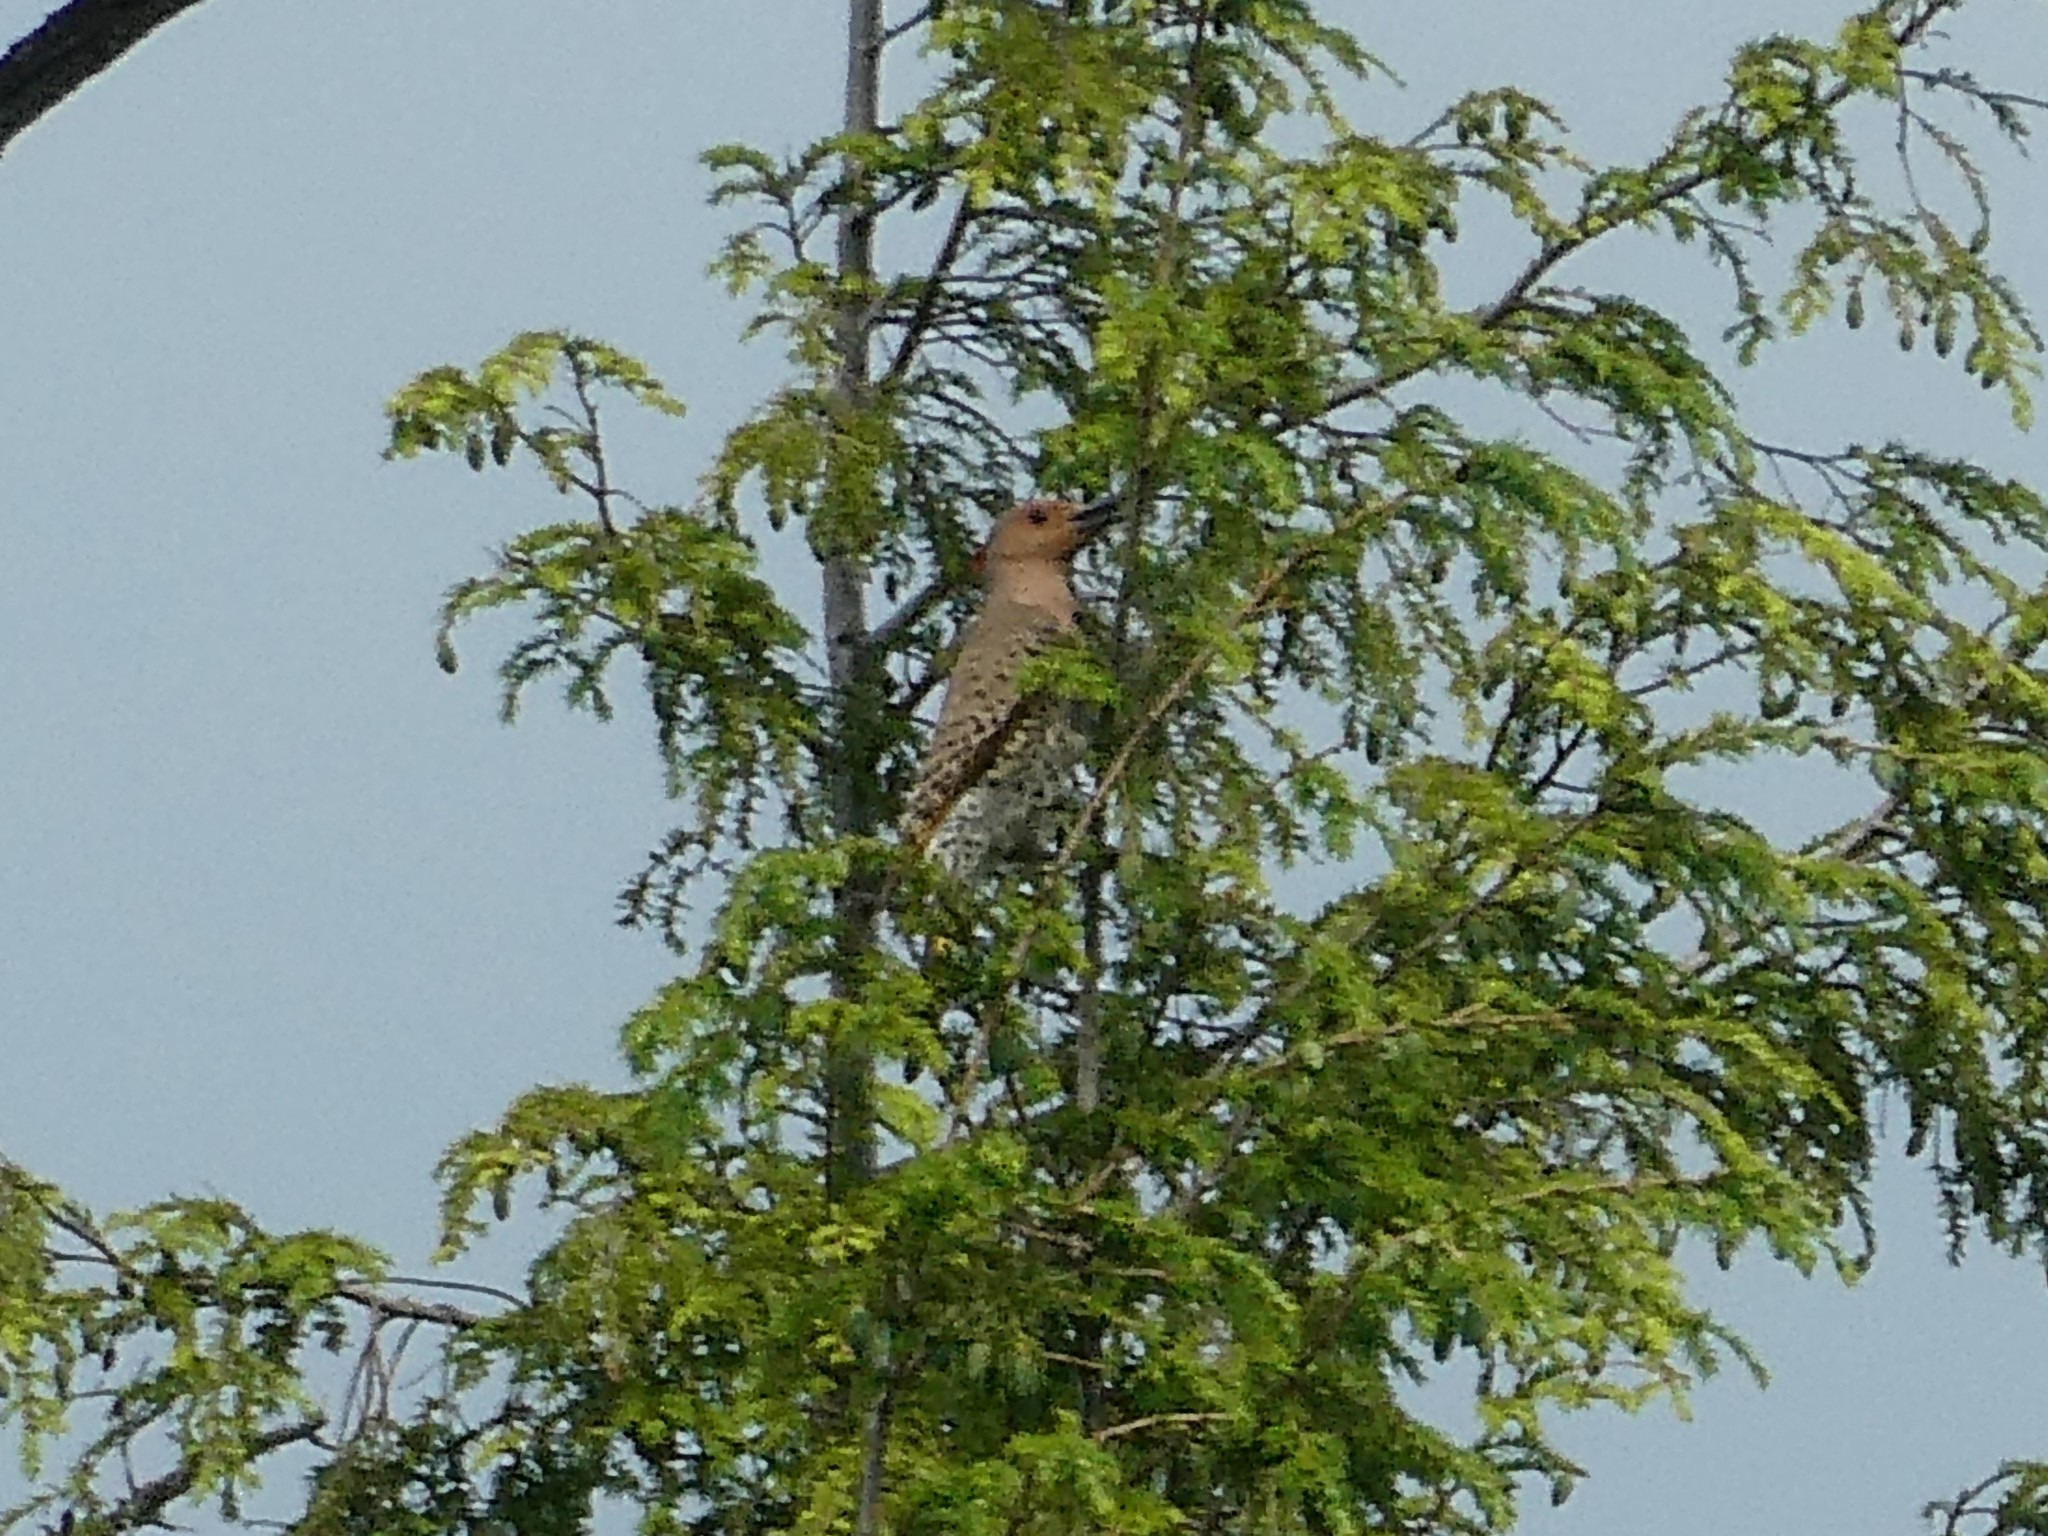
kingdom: Animalia
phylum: Chordata
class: Aves
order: Piciformes
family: Picidae
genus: Colaptes
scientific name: Colaptes auratus
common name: Northern flicker
